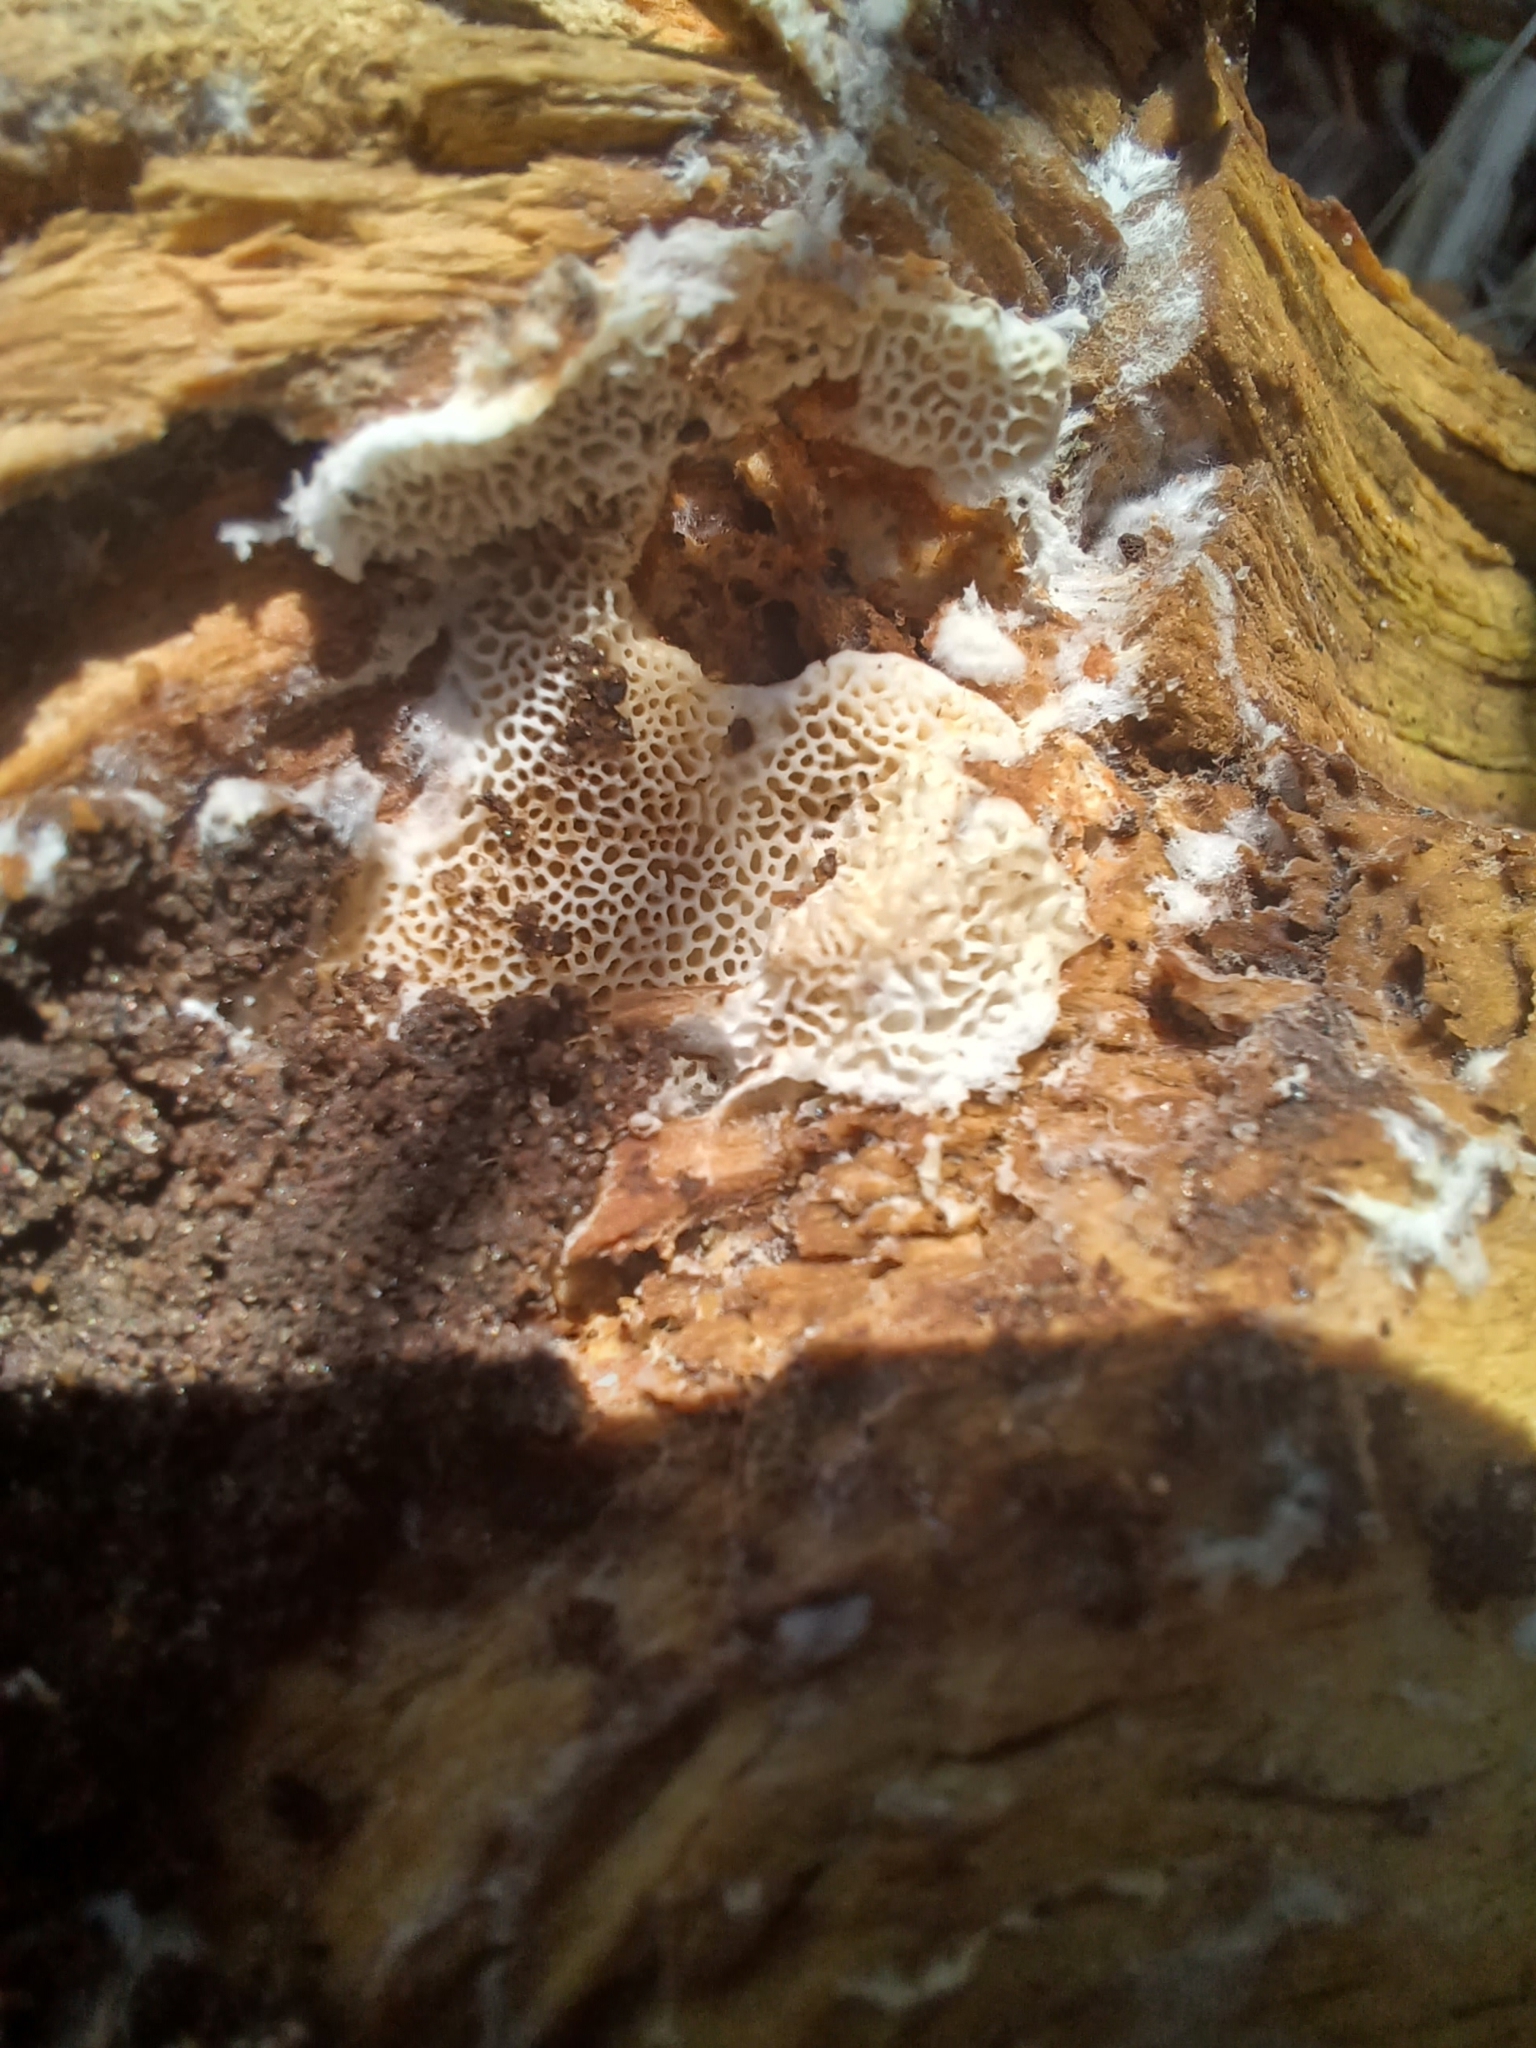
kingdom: Fungi
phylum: Basidiomycota
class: Agaricomycetes
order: Hymenochaetales
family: Schizoporaceae
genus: Schizopora
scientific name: Schizopora paradoxa
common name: Split porecrust
